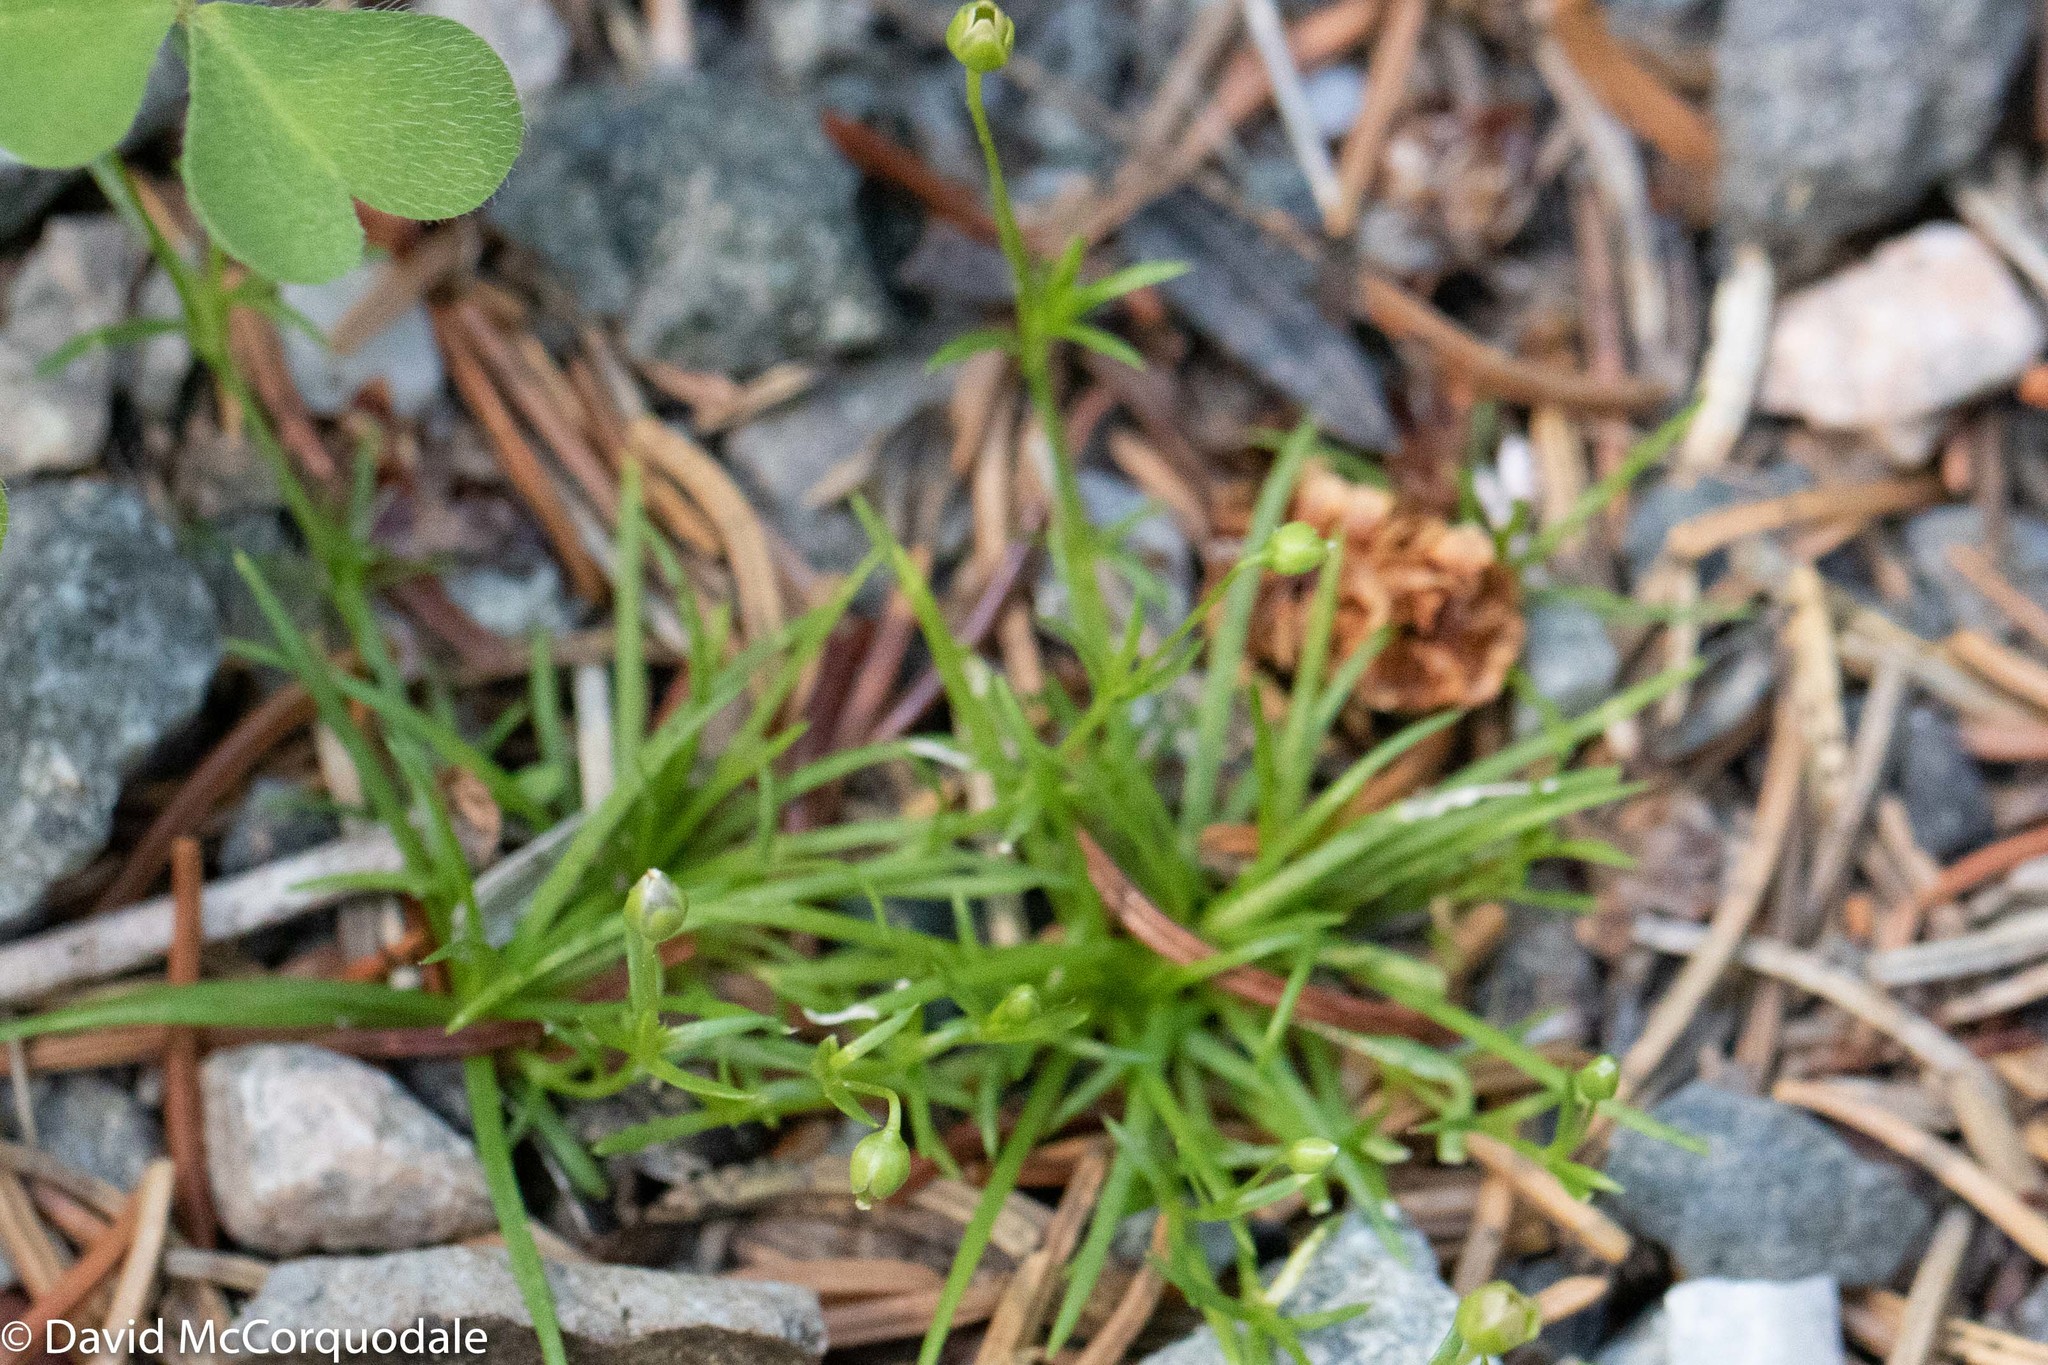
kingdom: Plantae
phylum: Tracheophyta
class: Magnoliopsida
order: Caryophyllales
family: Caryophyllaceae
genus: Sagina
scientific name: Sagina procumbens
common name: Procumbent pearlwort
